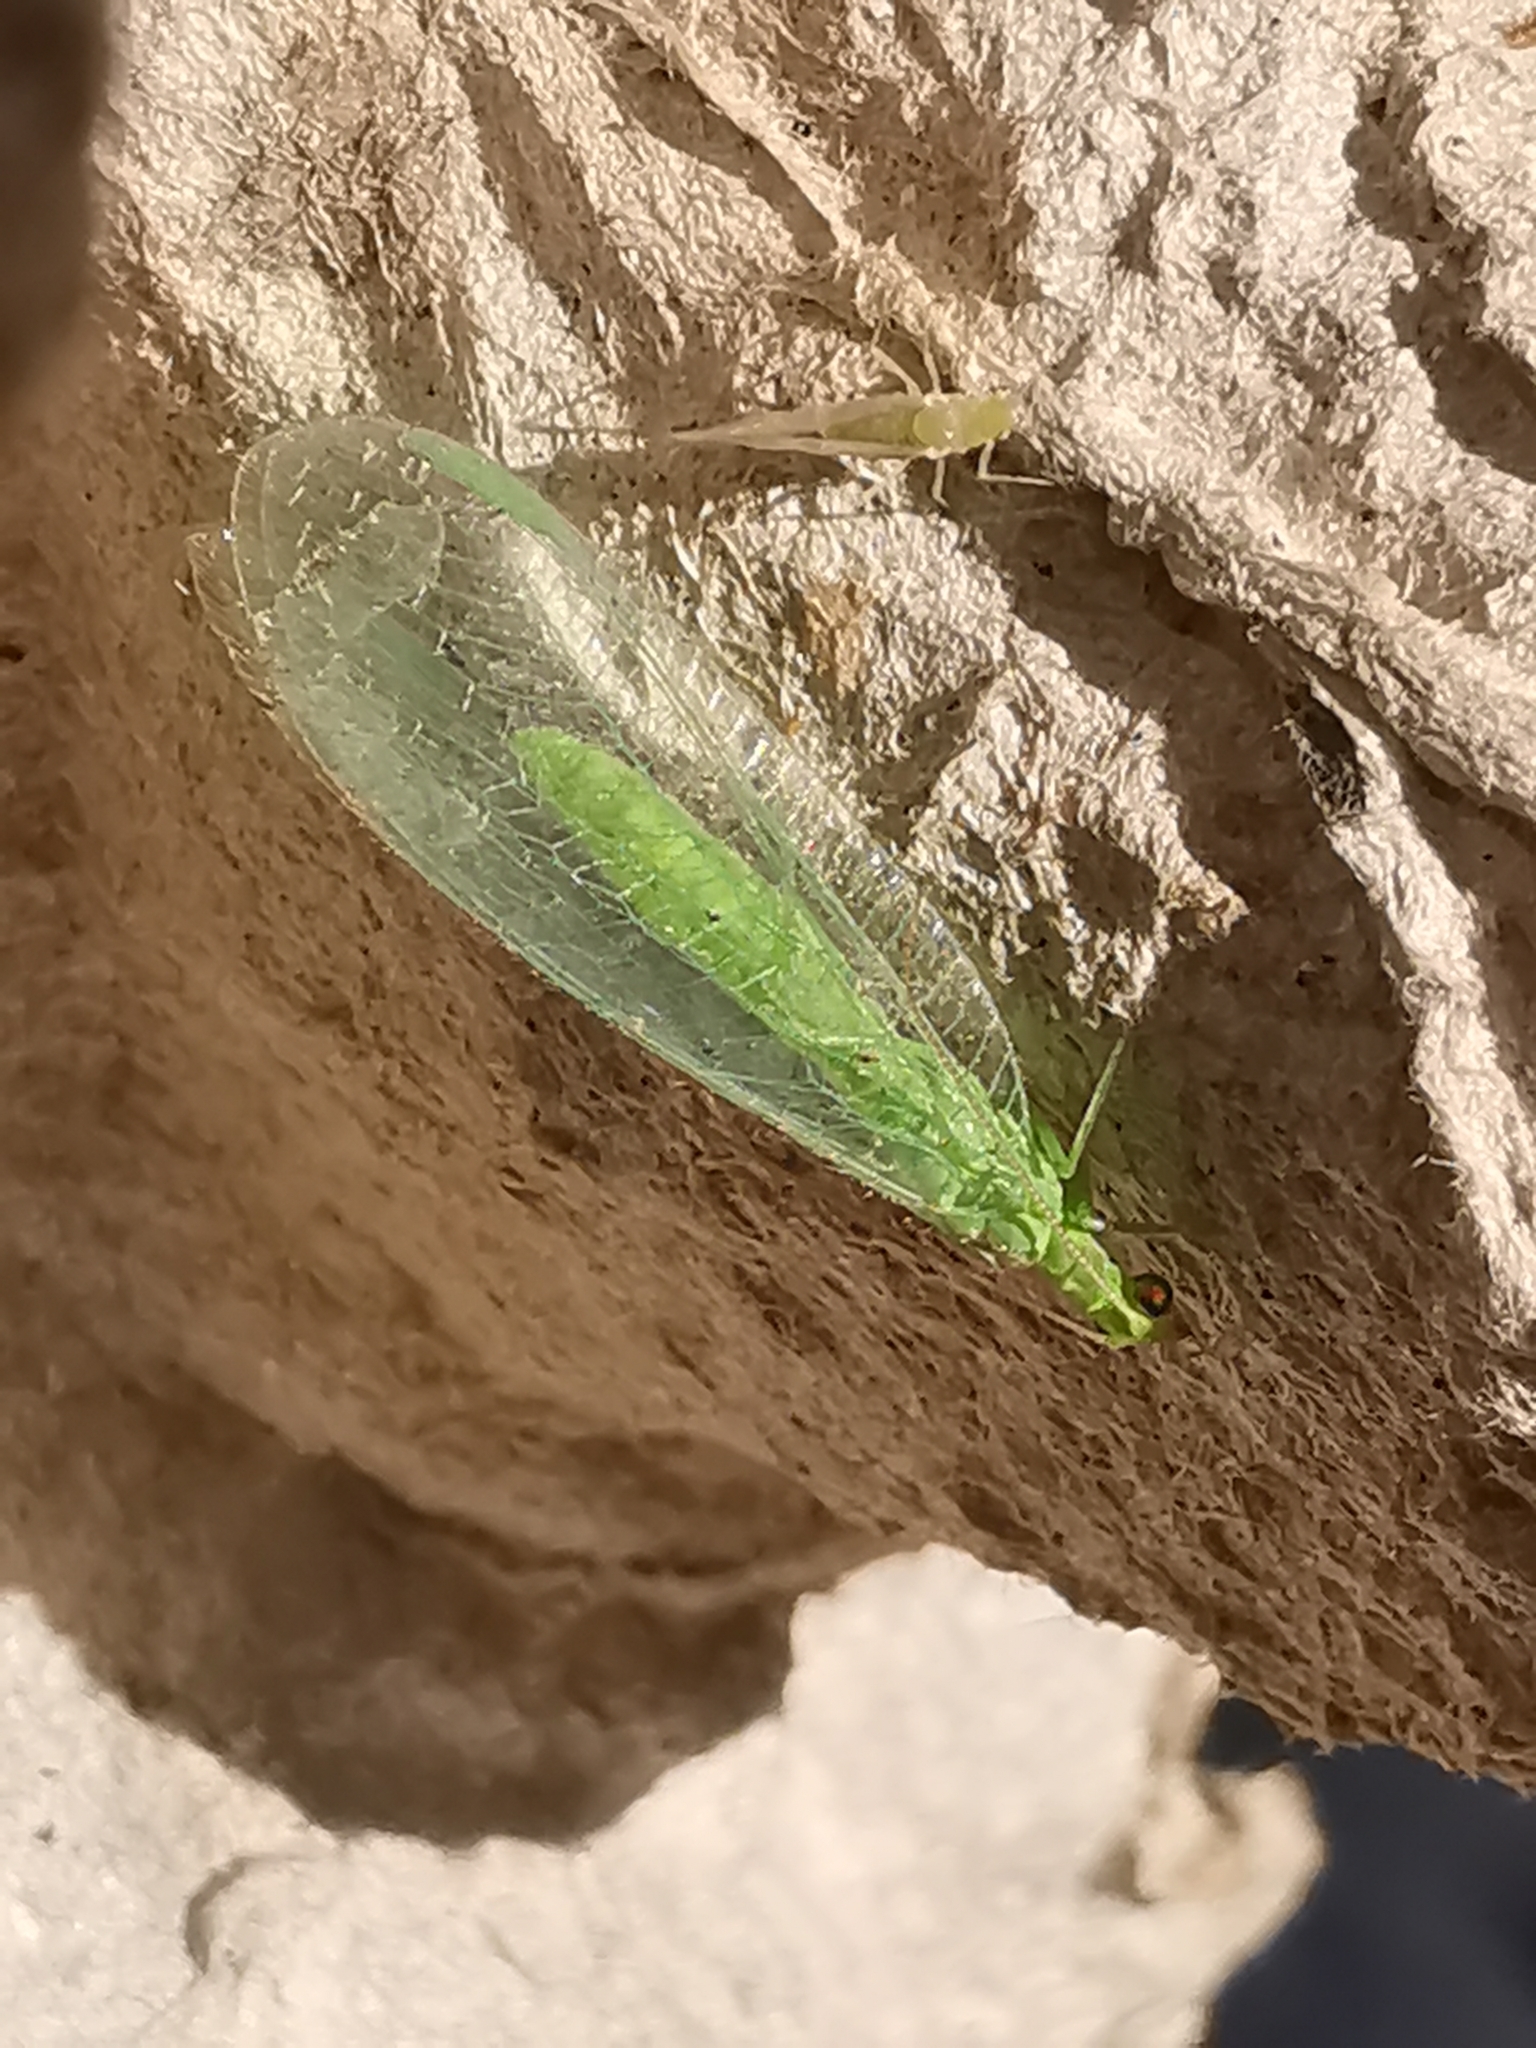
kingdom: Animalia
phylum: Arthropoda
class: Insecta
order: Neuroptera
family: Chrysopidae
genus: Chrysoperla
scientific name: Chrysoperla
